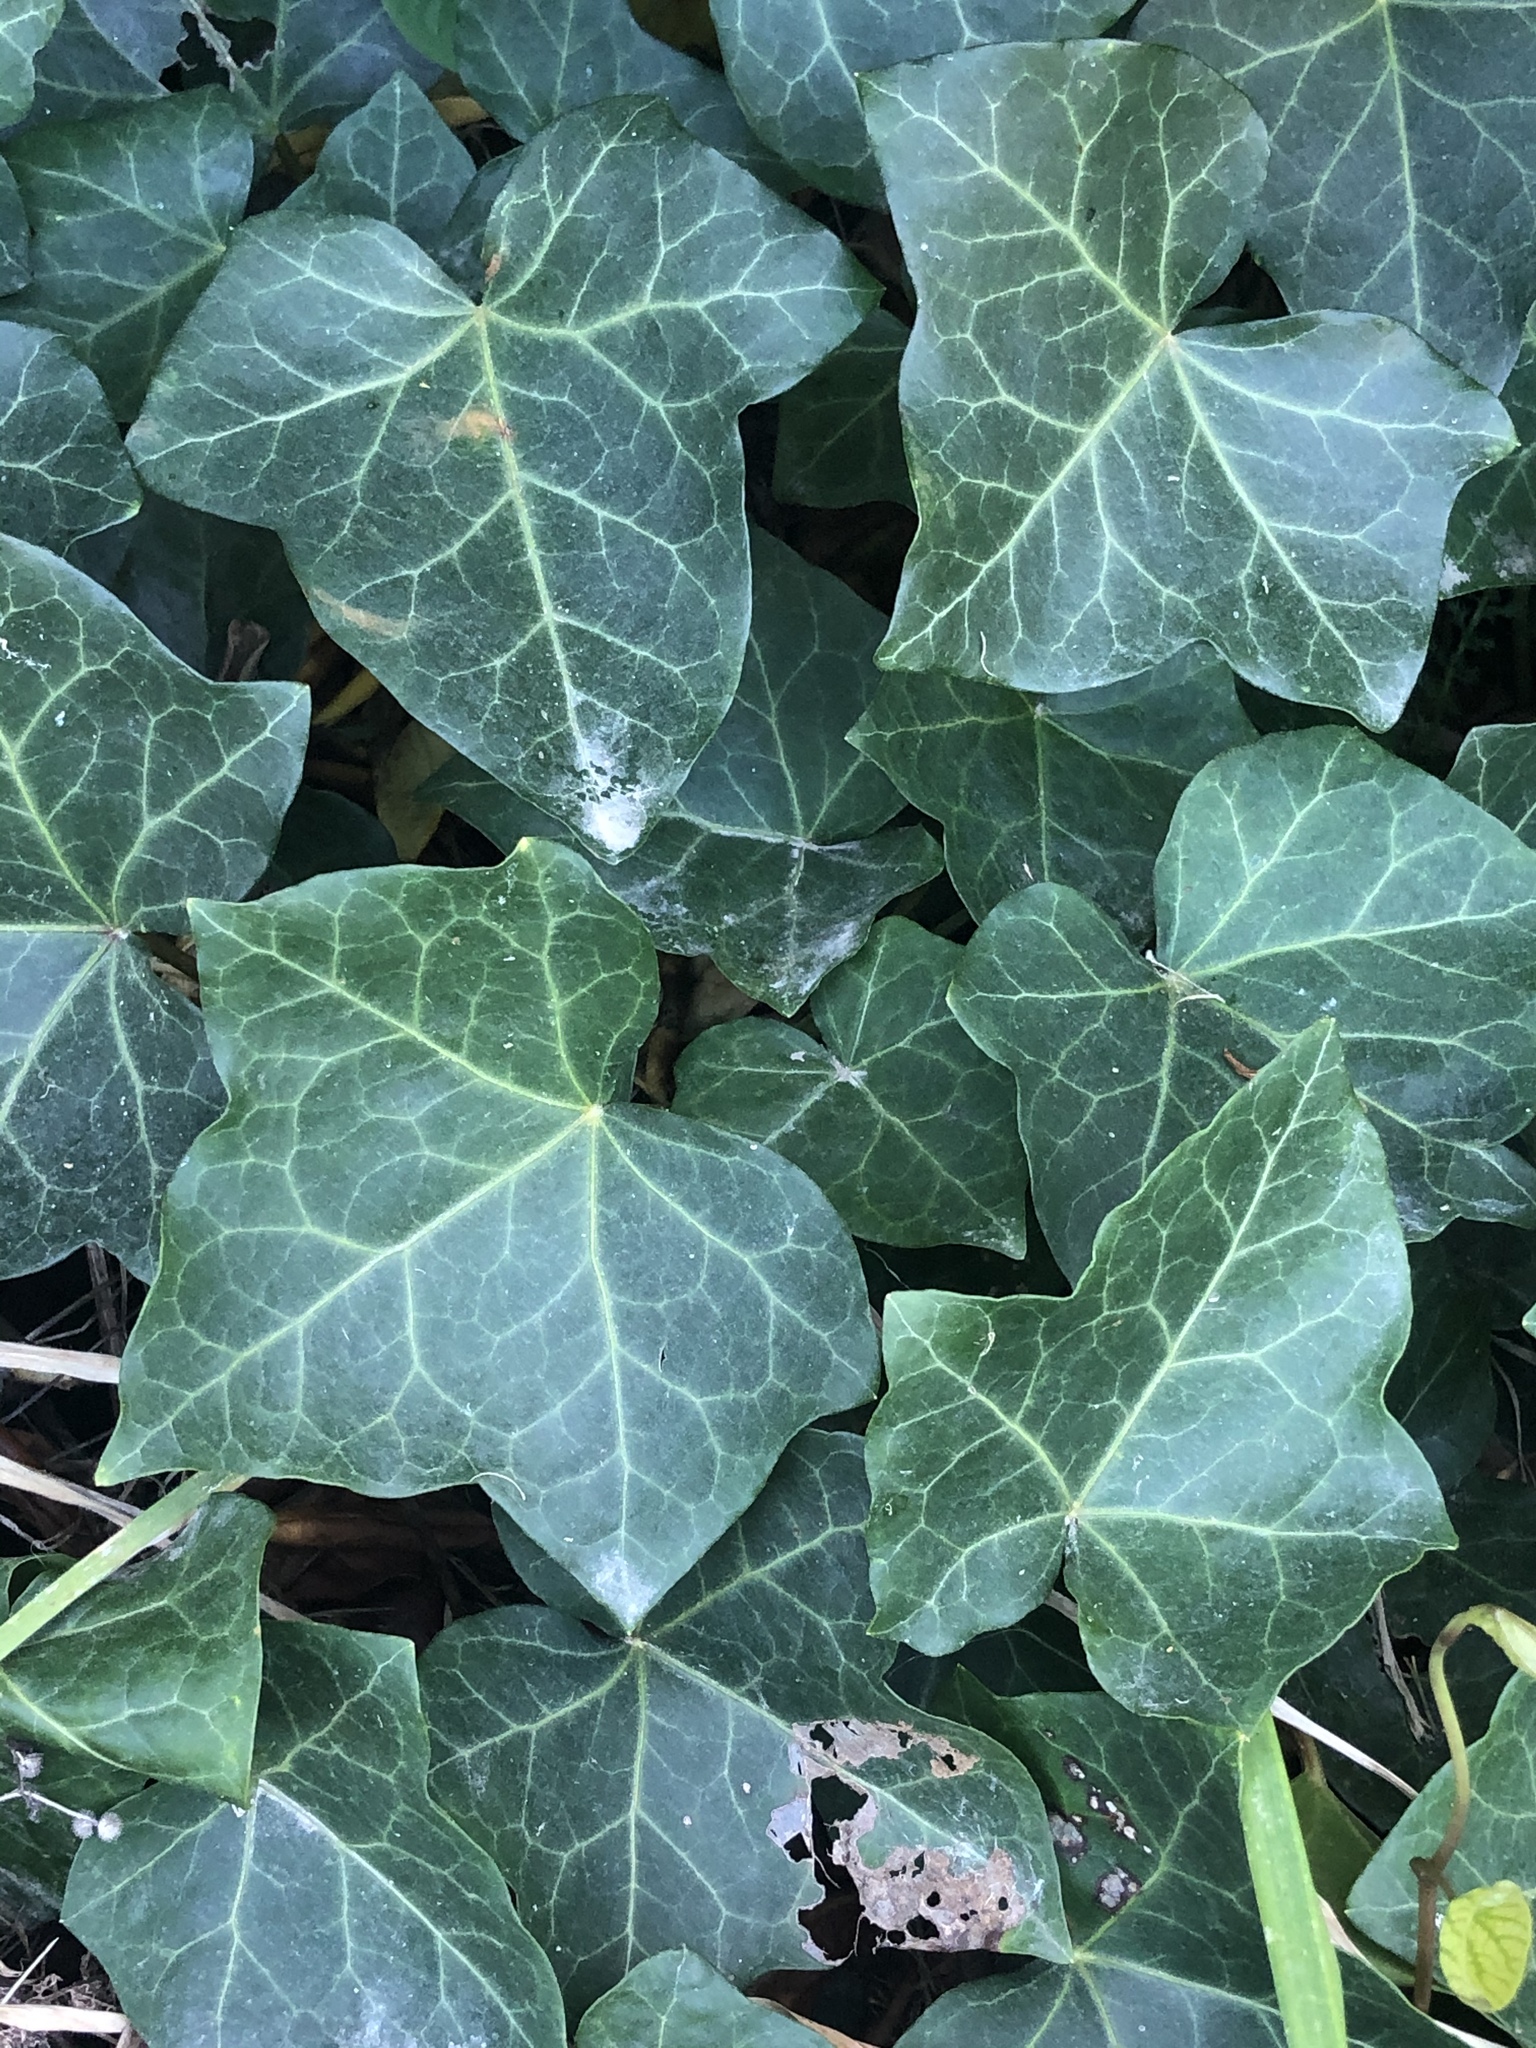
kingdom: Plantae
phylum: Tracheophyta
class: Magnoliopsida
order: Apiales
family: Araliaceae
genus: Hedera
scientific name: Hedera helix
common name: Ivy
